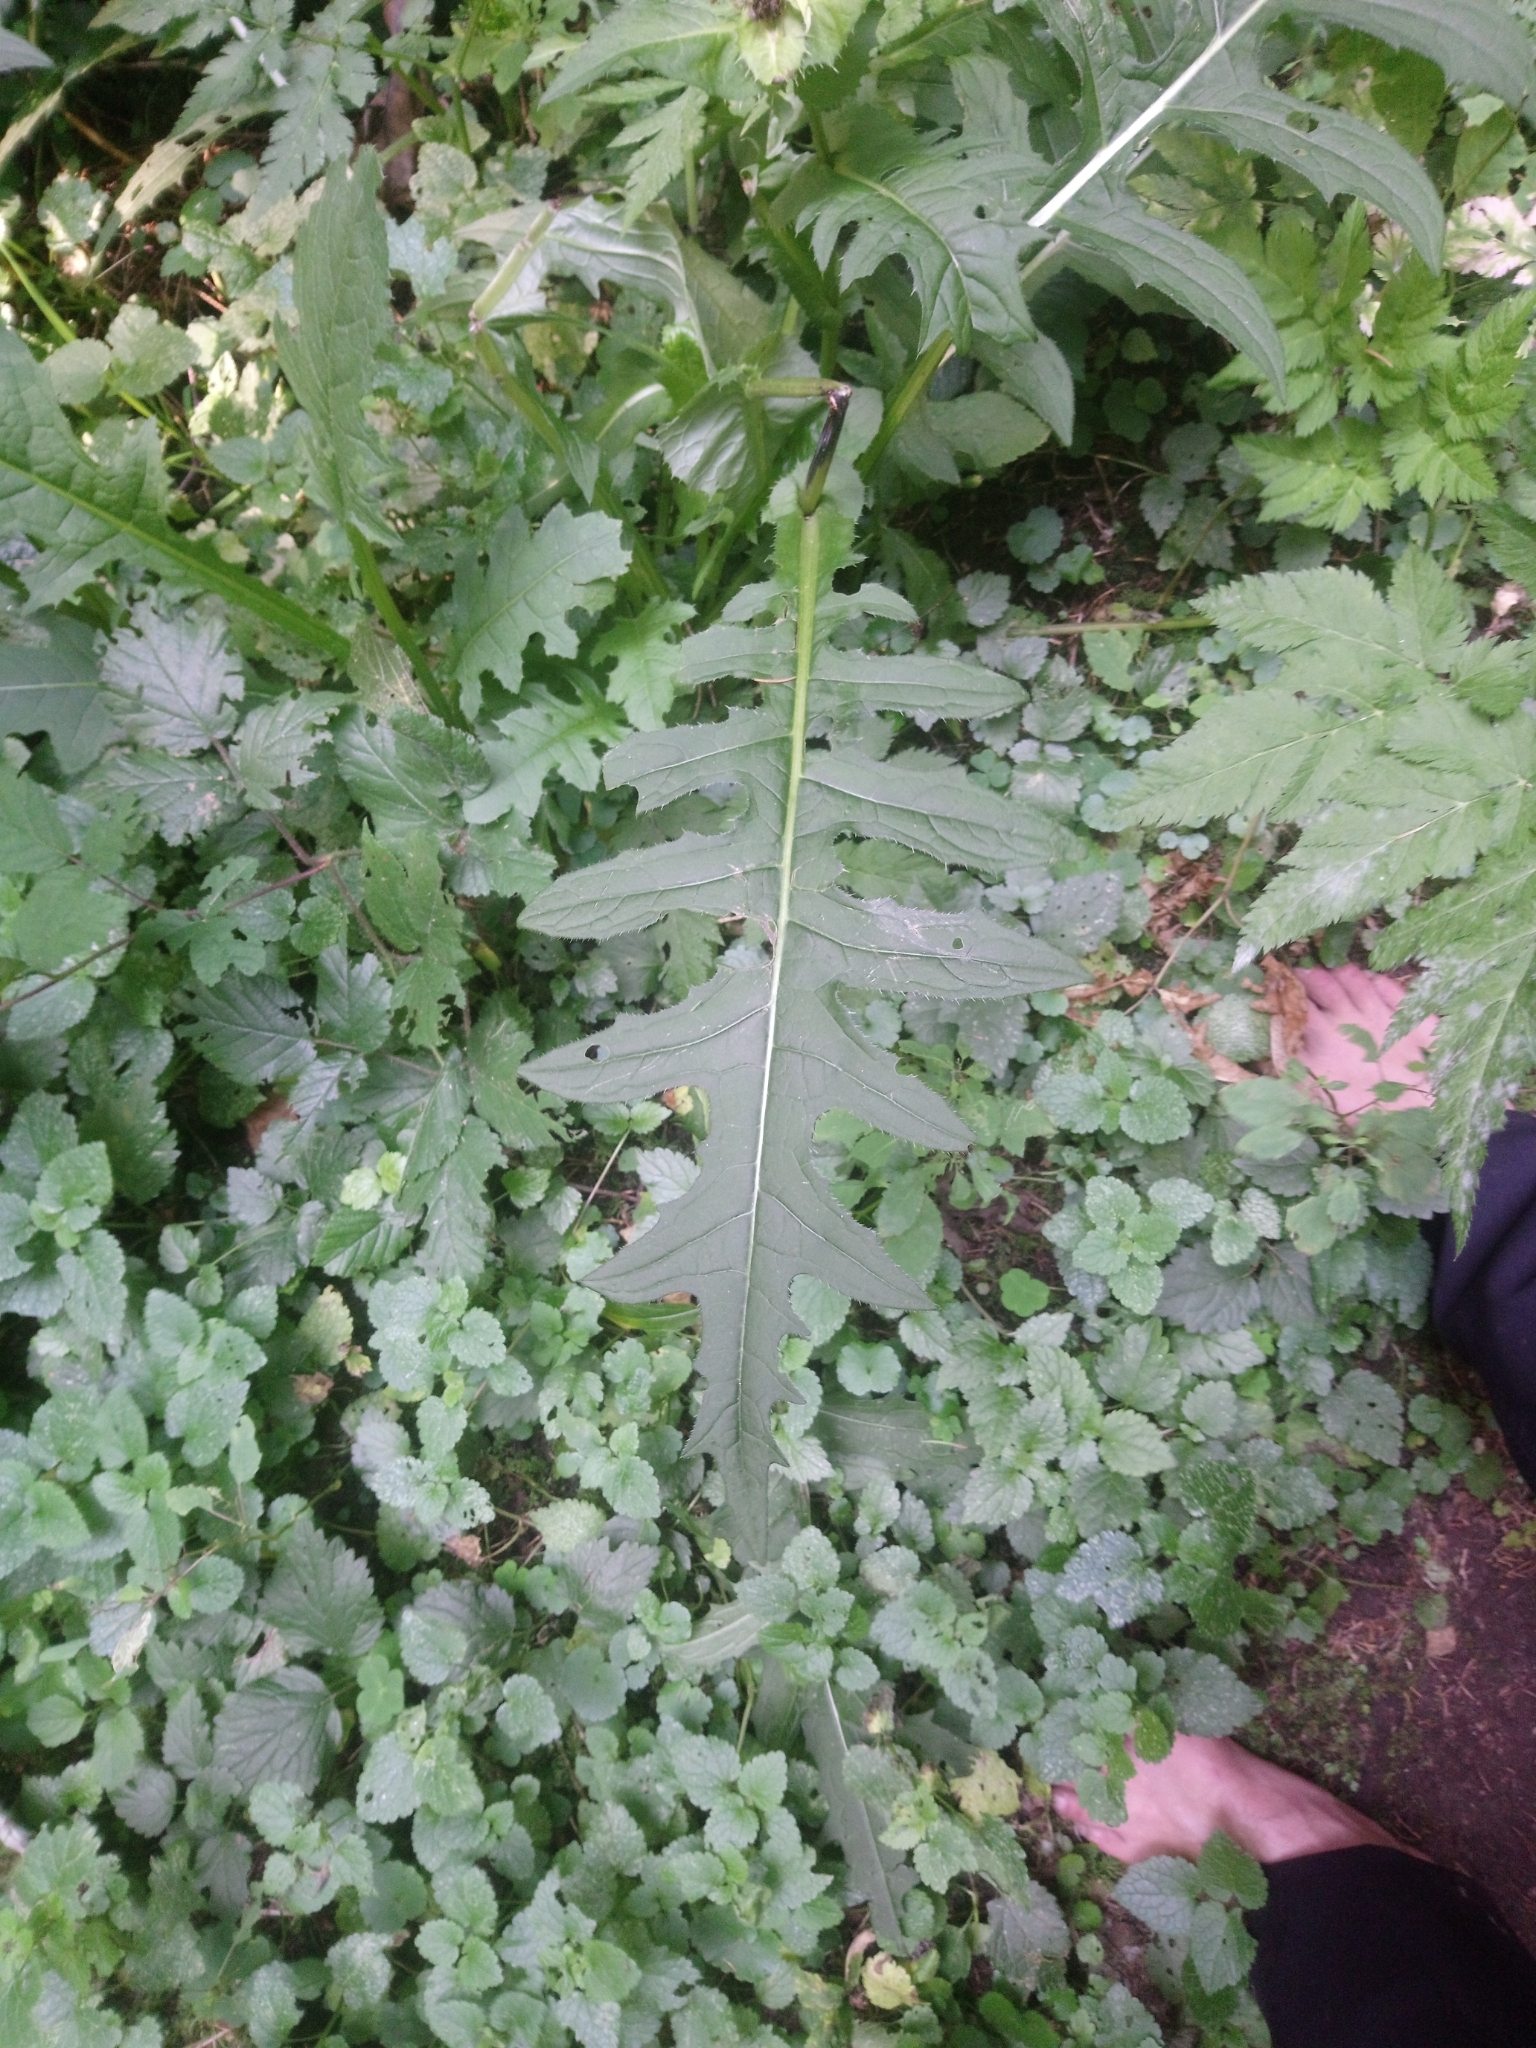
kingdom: Plantae
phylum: Tracheophyta
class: Magnoliopsida
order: Asterales
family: Asteraceae
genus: Cirsium
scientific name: Cirsium oleraceum
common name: Cabbage thistle
